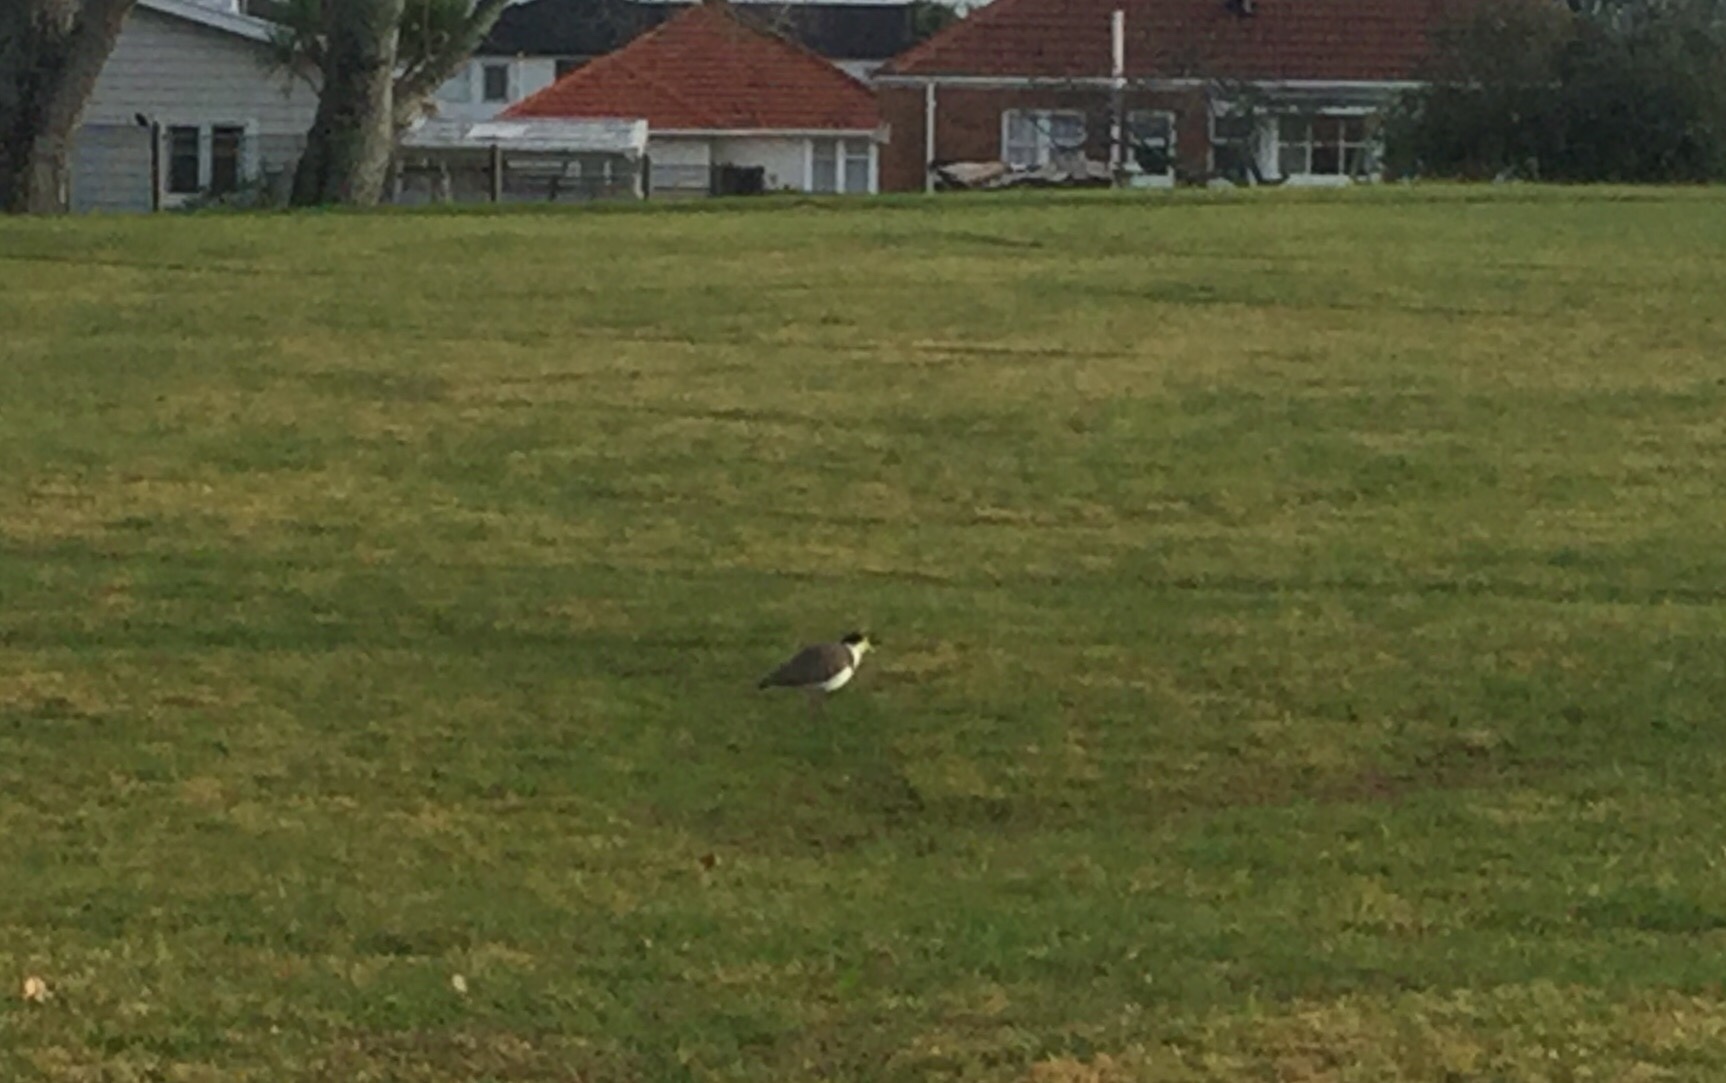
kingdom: Animalia
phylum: Chordata
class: Aves
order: Charadriiformes
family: Charadriidae
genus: Vanellus
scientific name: Vanellus miles
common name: Masked lapwing
